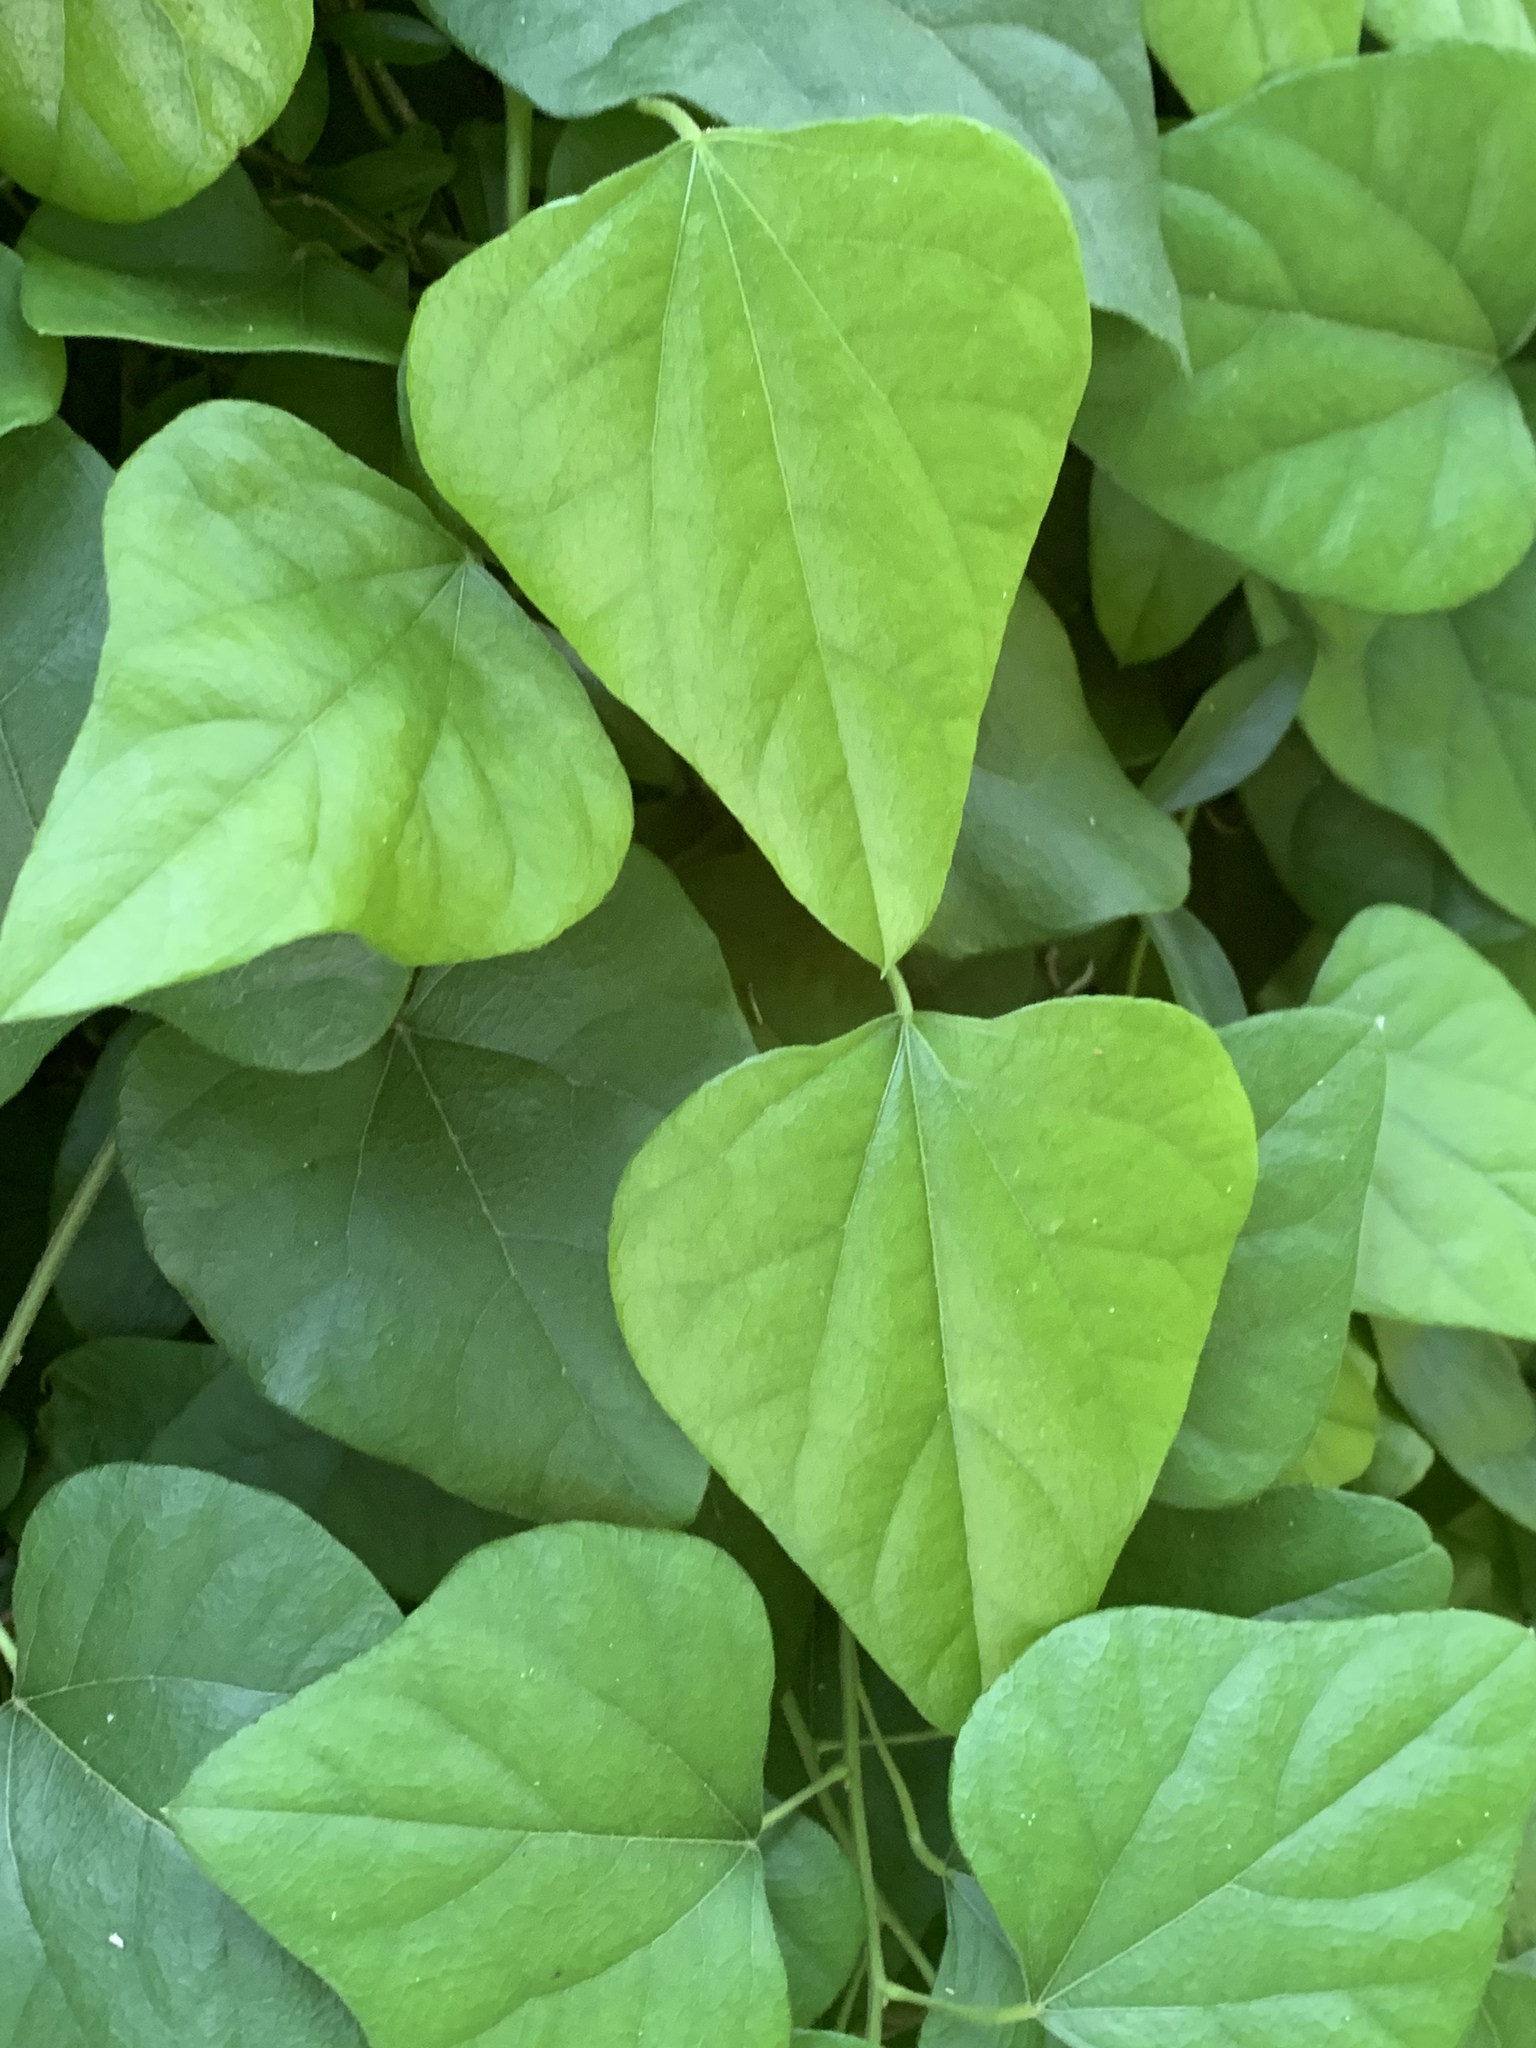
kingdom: Plantae
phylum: Tracheophyta
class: Magnoliopsida
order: Ranunculales
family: Menispermaceae
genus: Cocculus
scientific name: Cocculus carolinus
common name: Carolina moonseed
